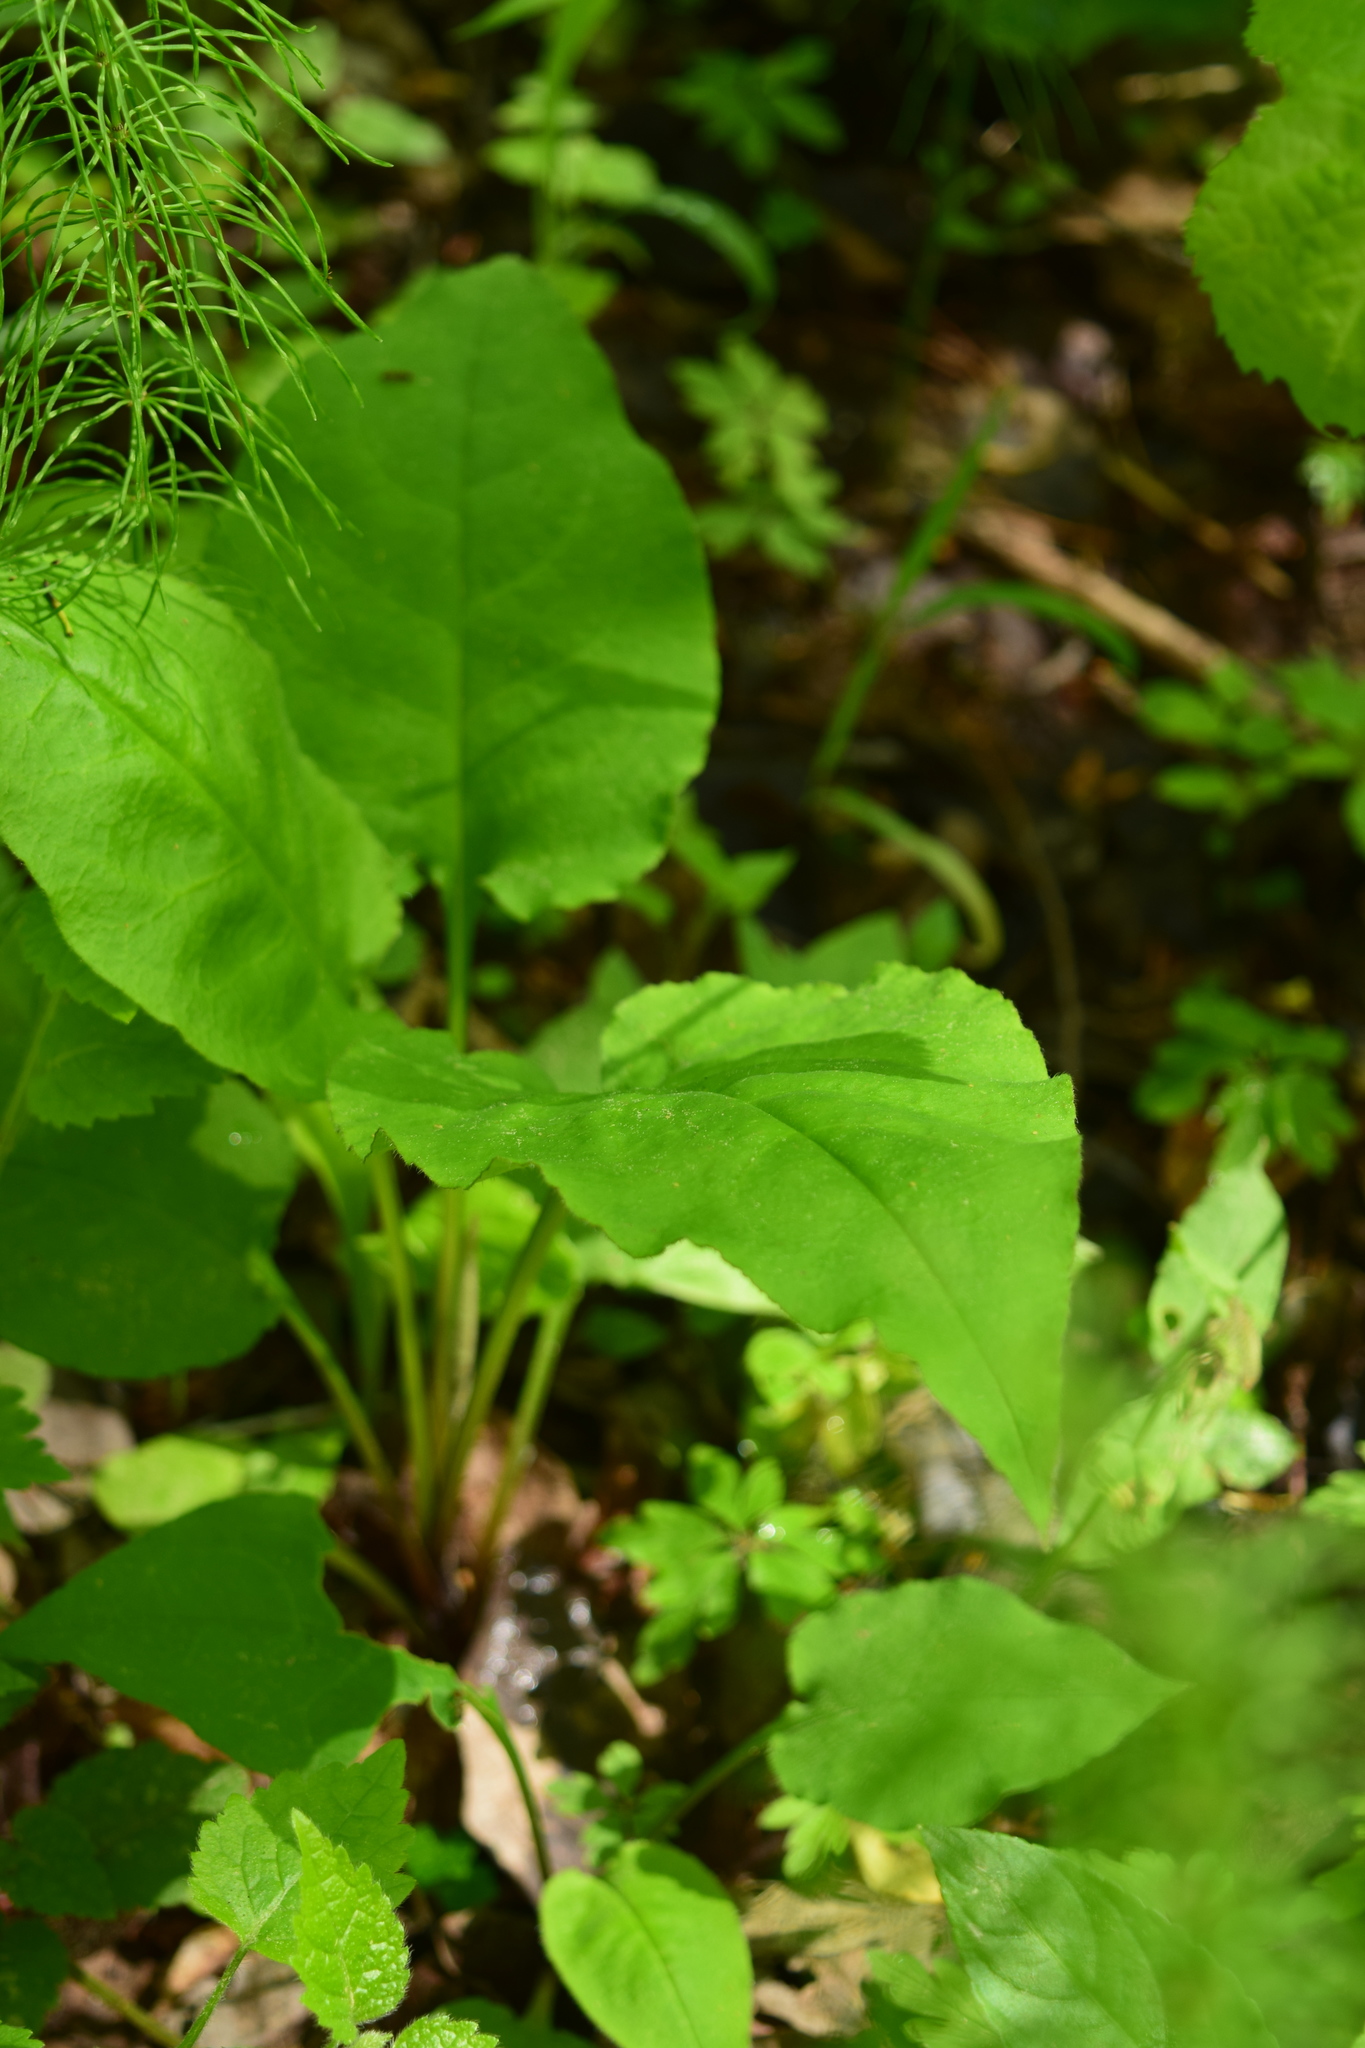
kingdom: Plantae
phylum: Tracheophyta
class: Magnoliopsida
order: Boraginales
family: Boraginaceae
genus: Pulmonaria
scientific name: Pulmonaria obscura
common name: Suffolk lungwort
